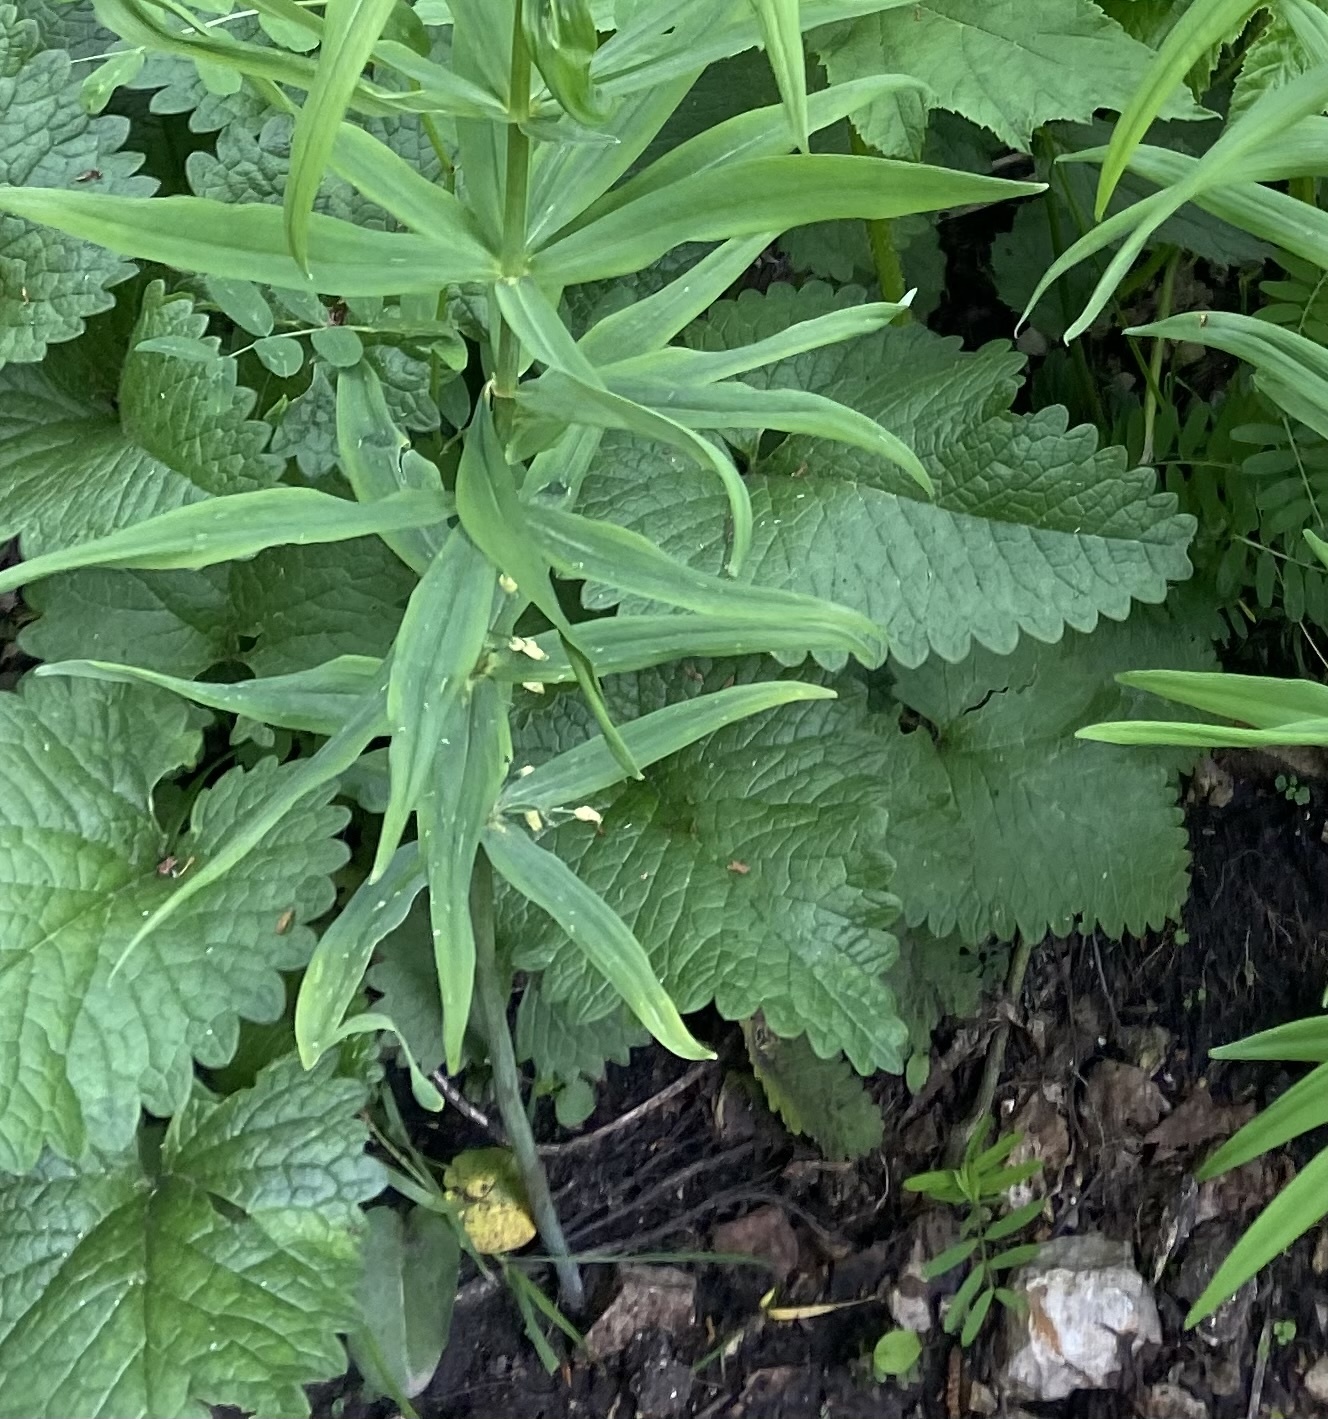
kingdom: Plantae
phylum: Tracheophyta
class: Magnoliopsida
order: Lamiales
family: Lamiaceae
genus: Betonica
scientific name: Betonica macrantha
